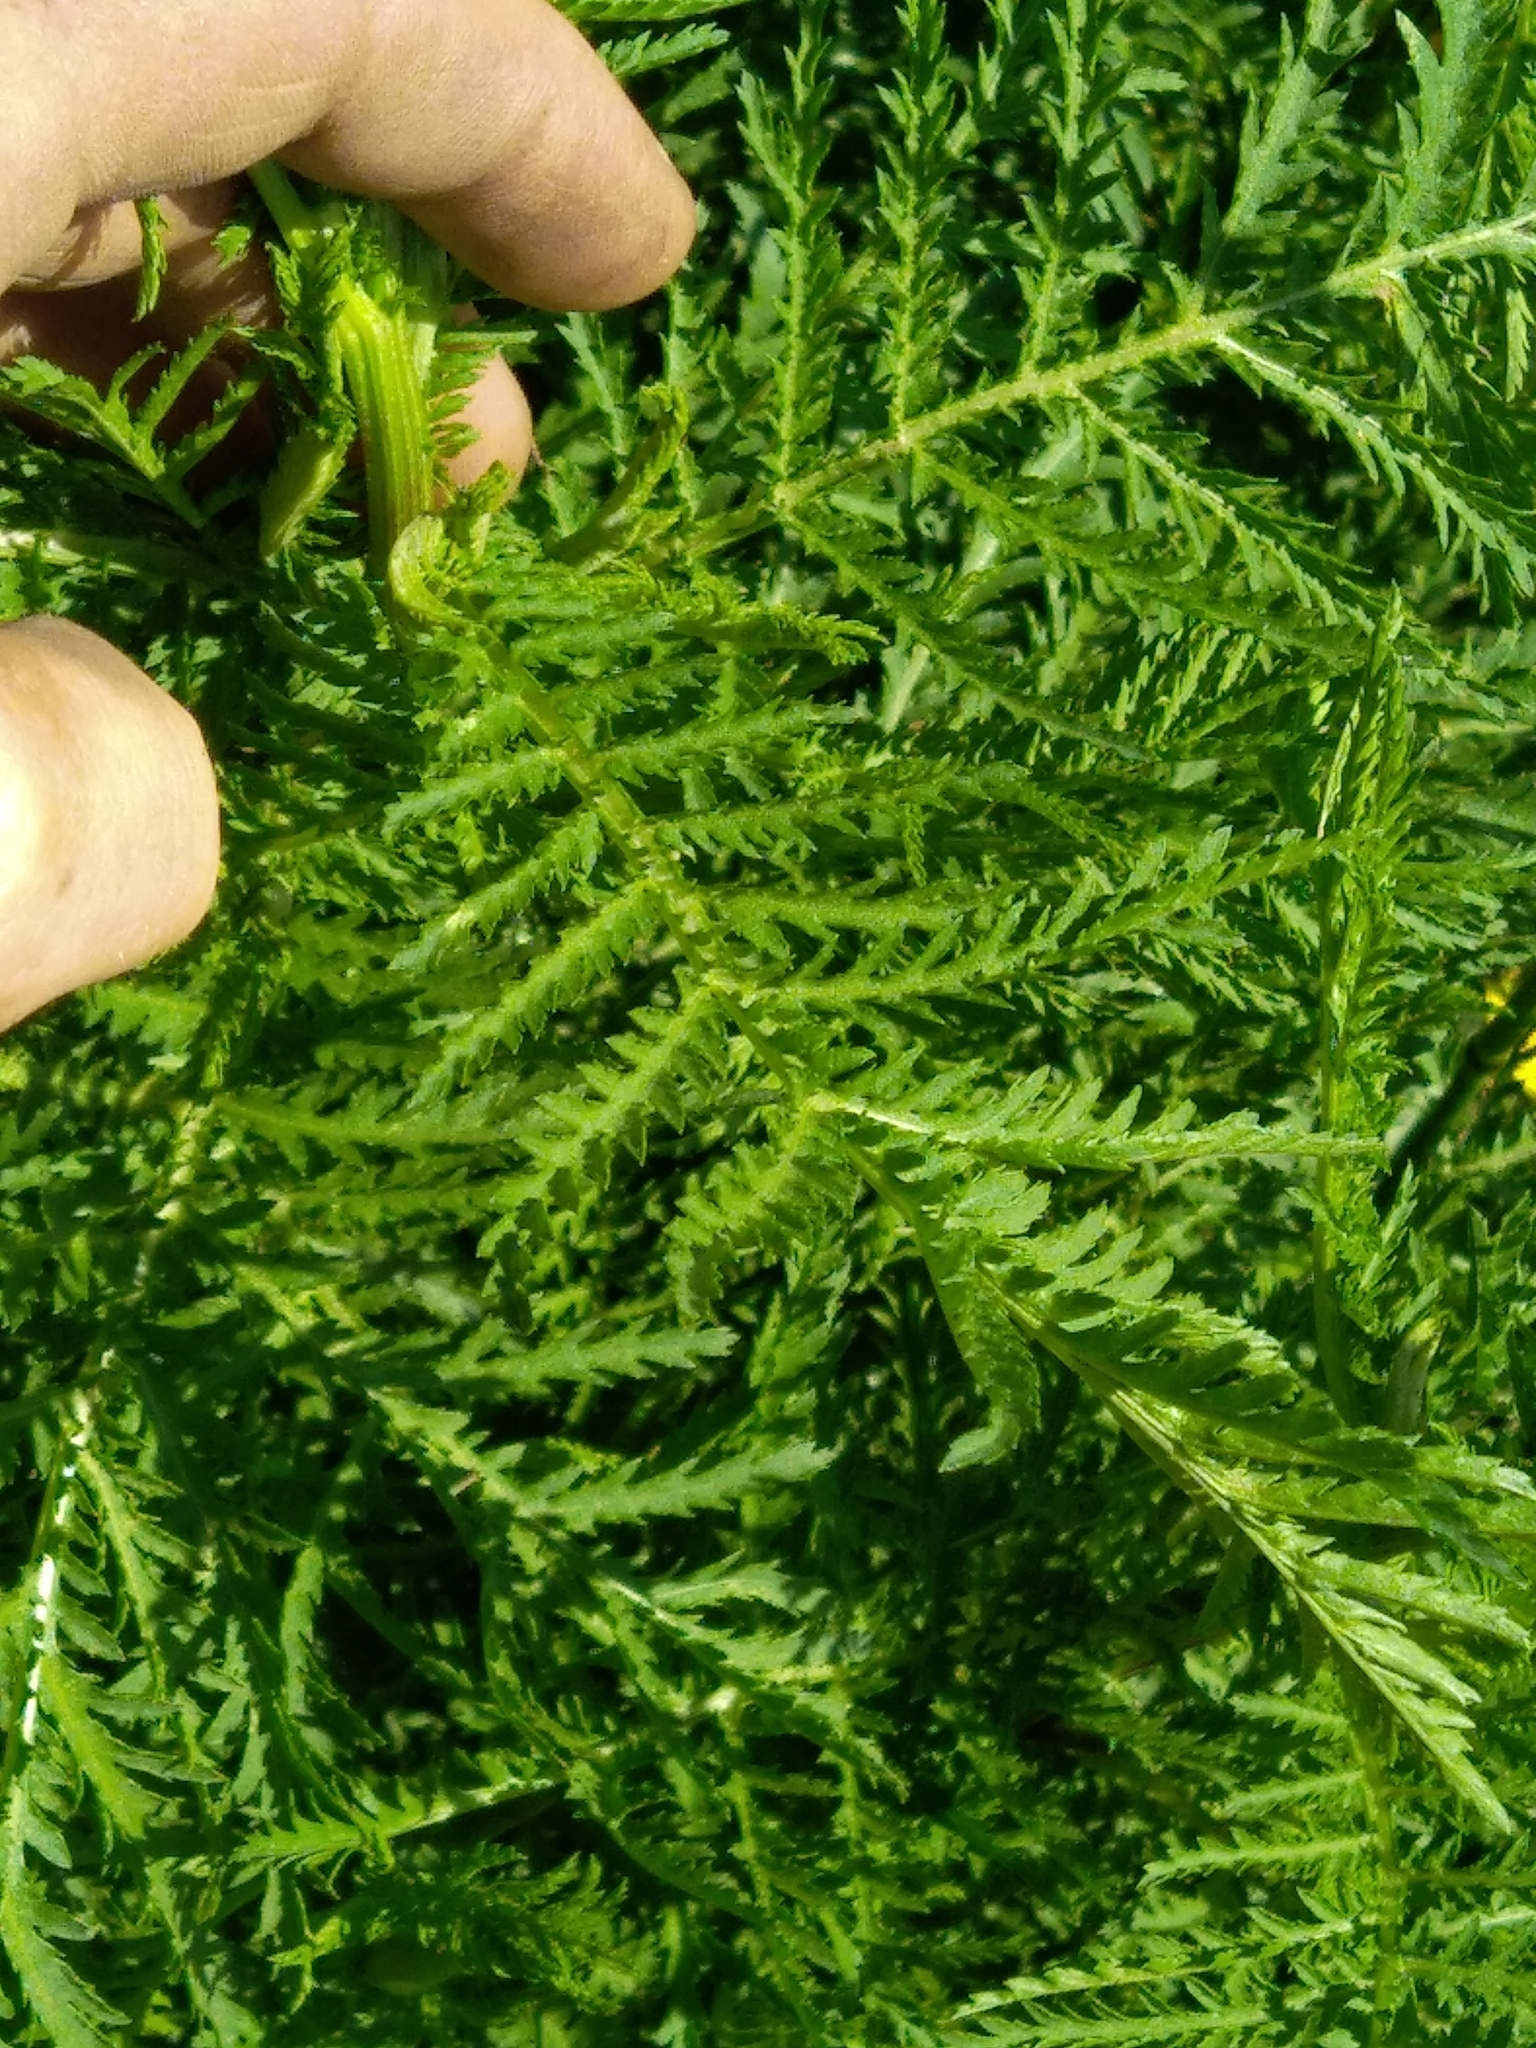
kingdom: Plantae
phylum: Tracheophyta
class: Magnoliopsida
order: Asterales
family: Asteraceae
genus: Tanacetum
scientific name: Tanacetum vulgare
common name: Common tansy
